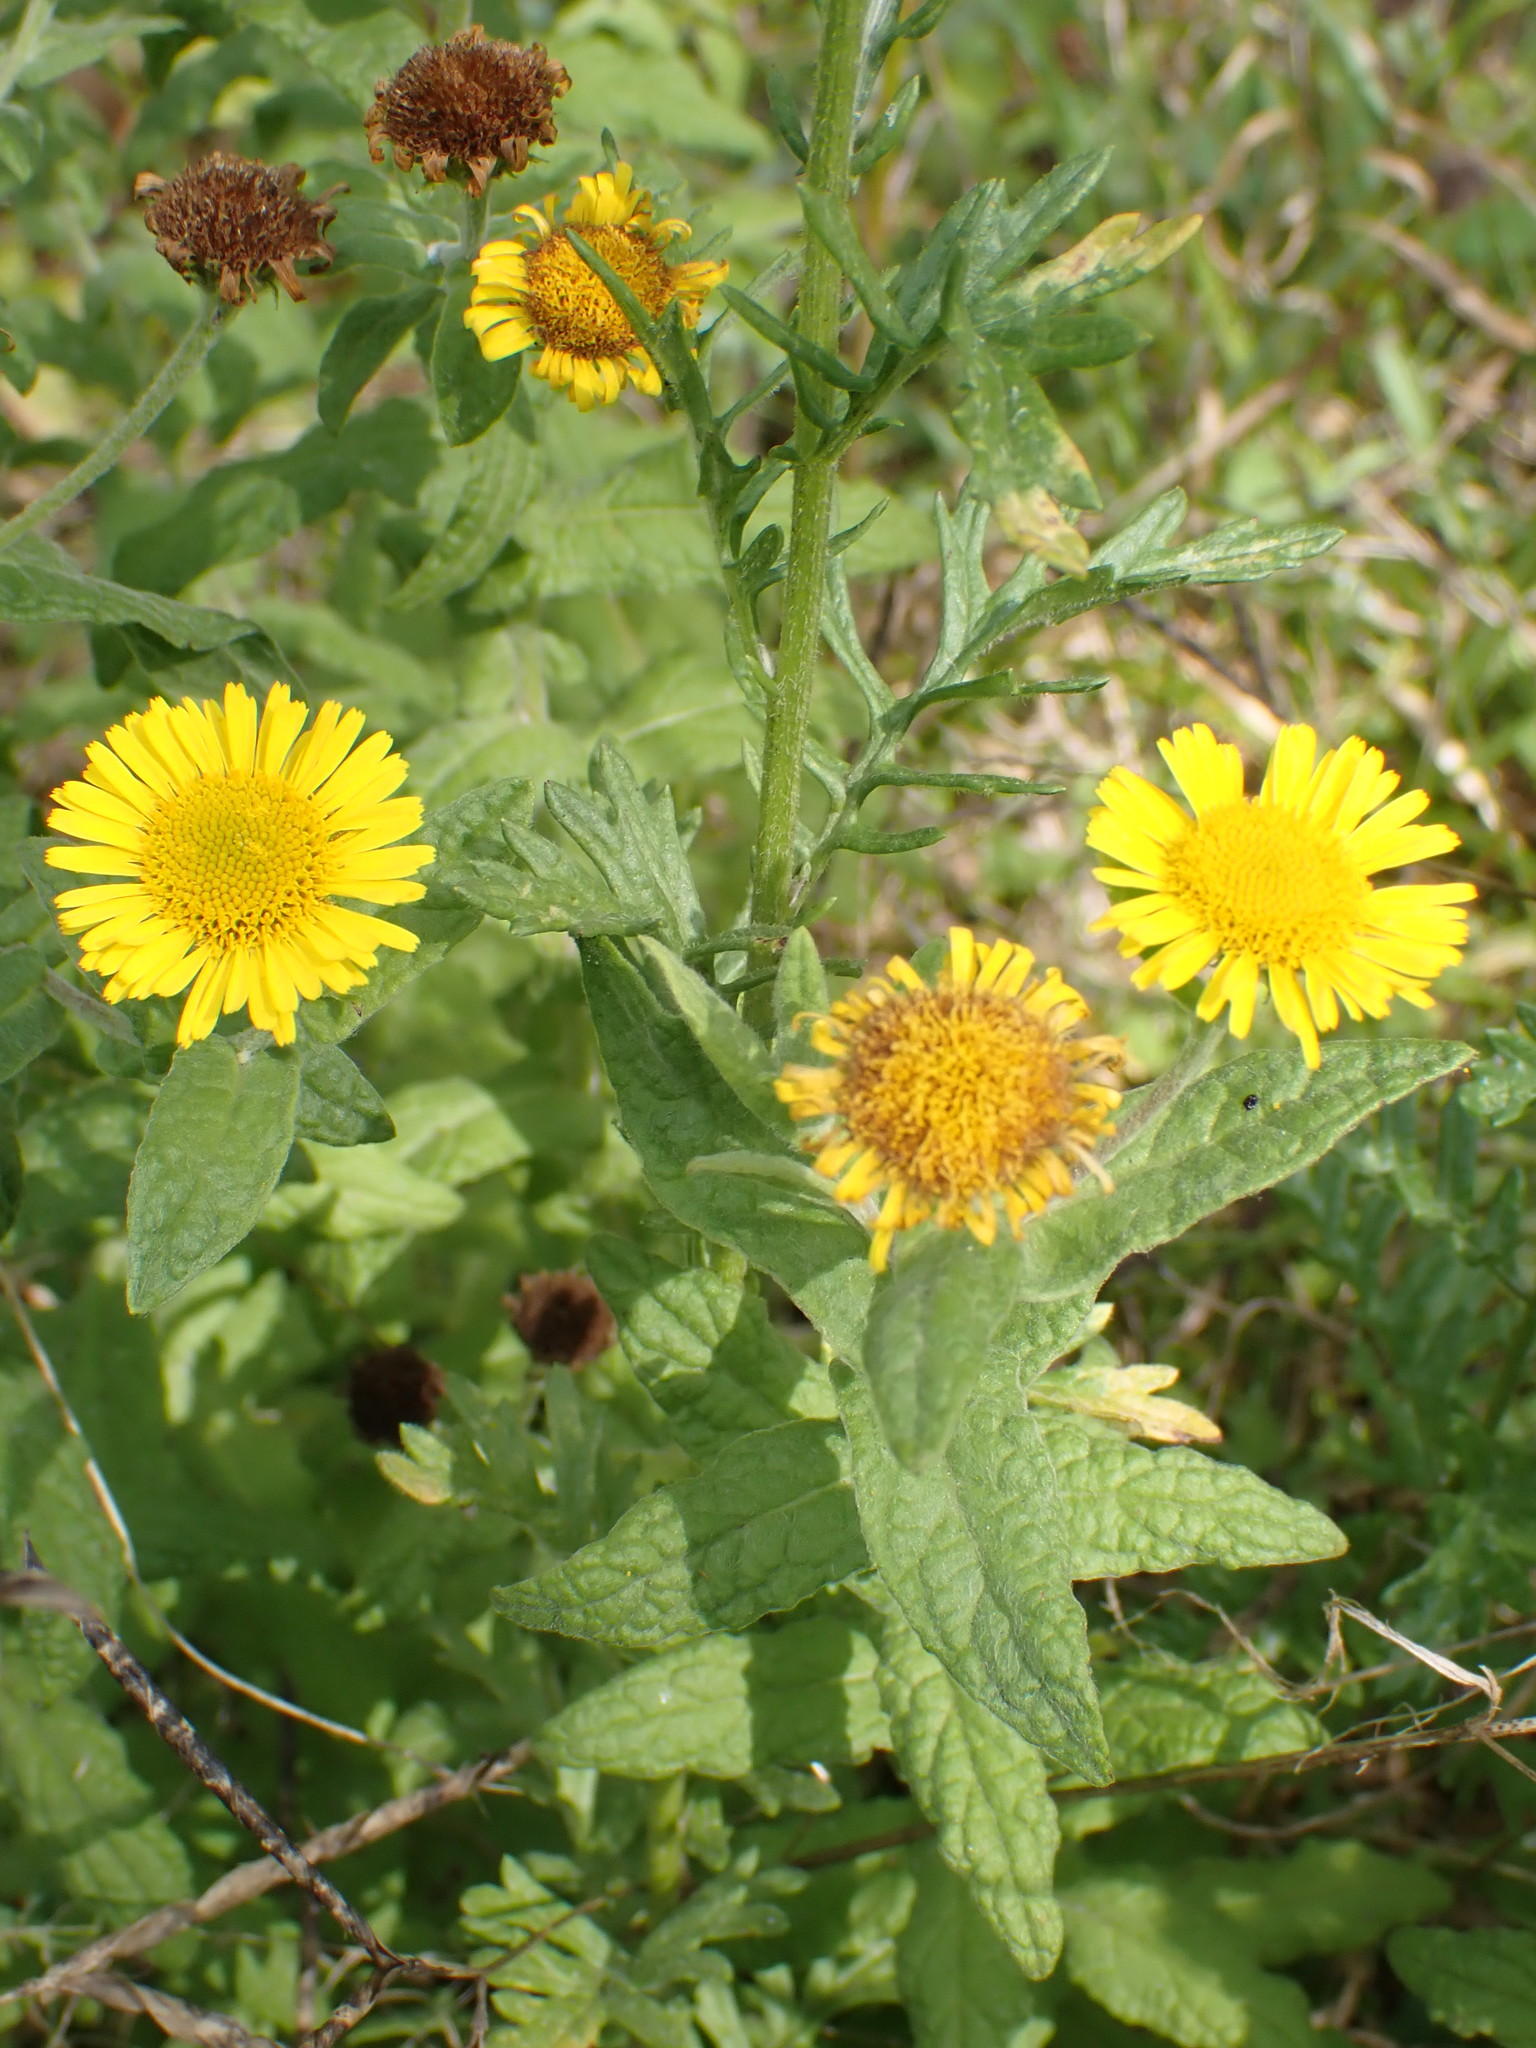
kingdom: Plantae
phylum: Tracheophyta
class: Magnoliopsida
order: Asterales
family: Asteraceae
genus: Pulicaria
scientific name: Pulicaria dysenterica
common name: Common fleabane
